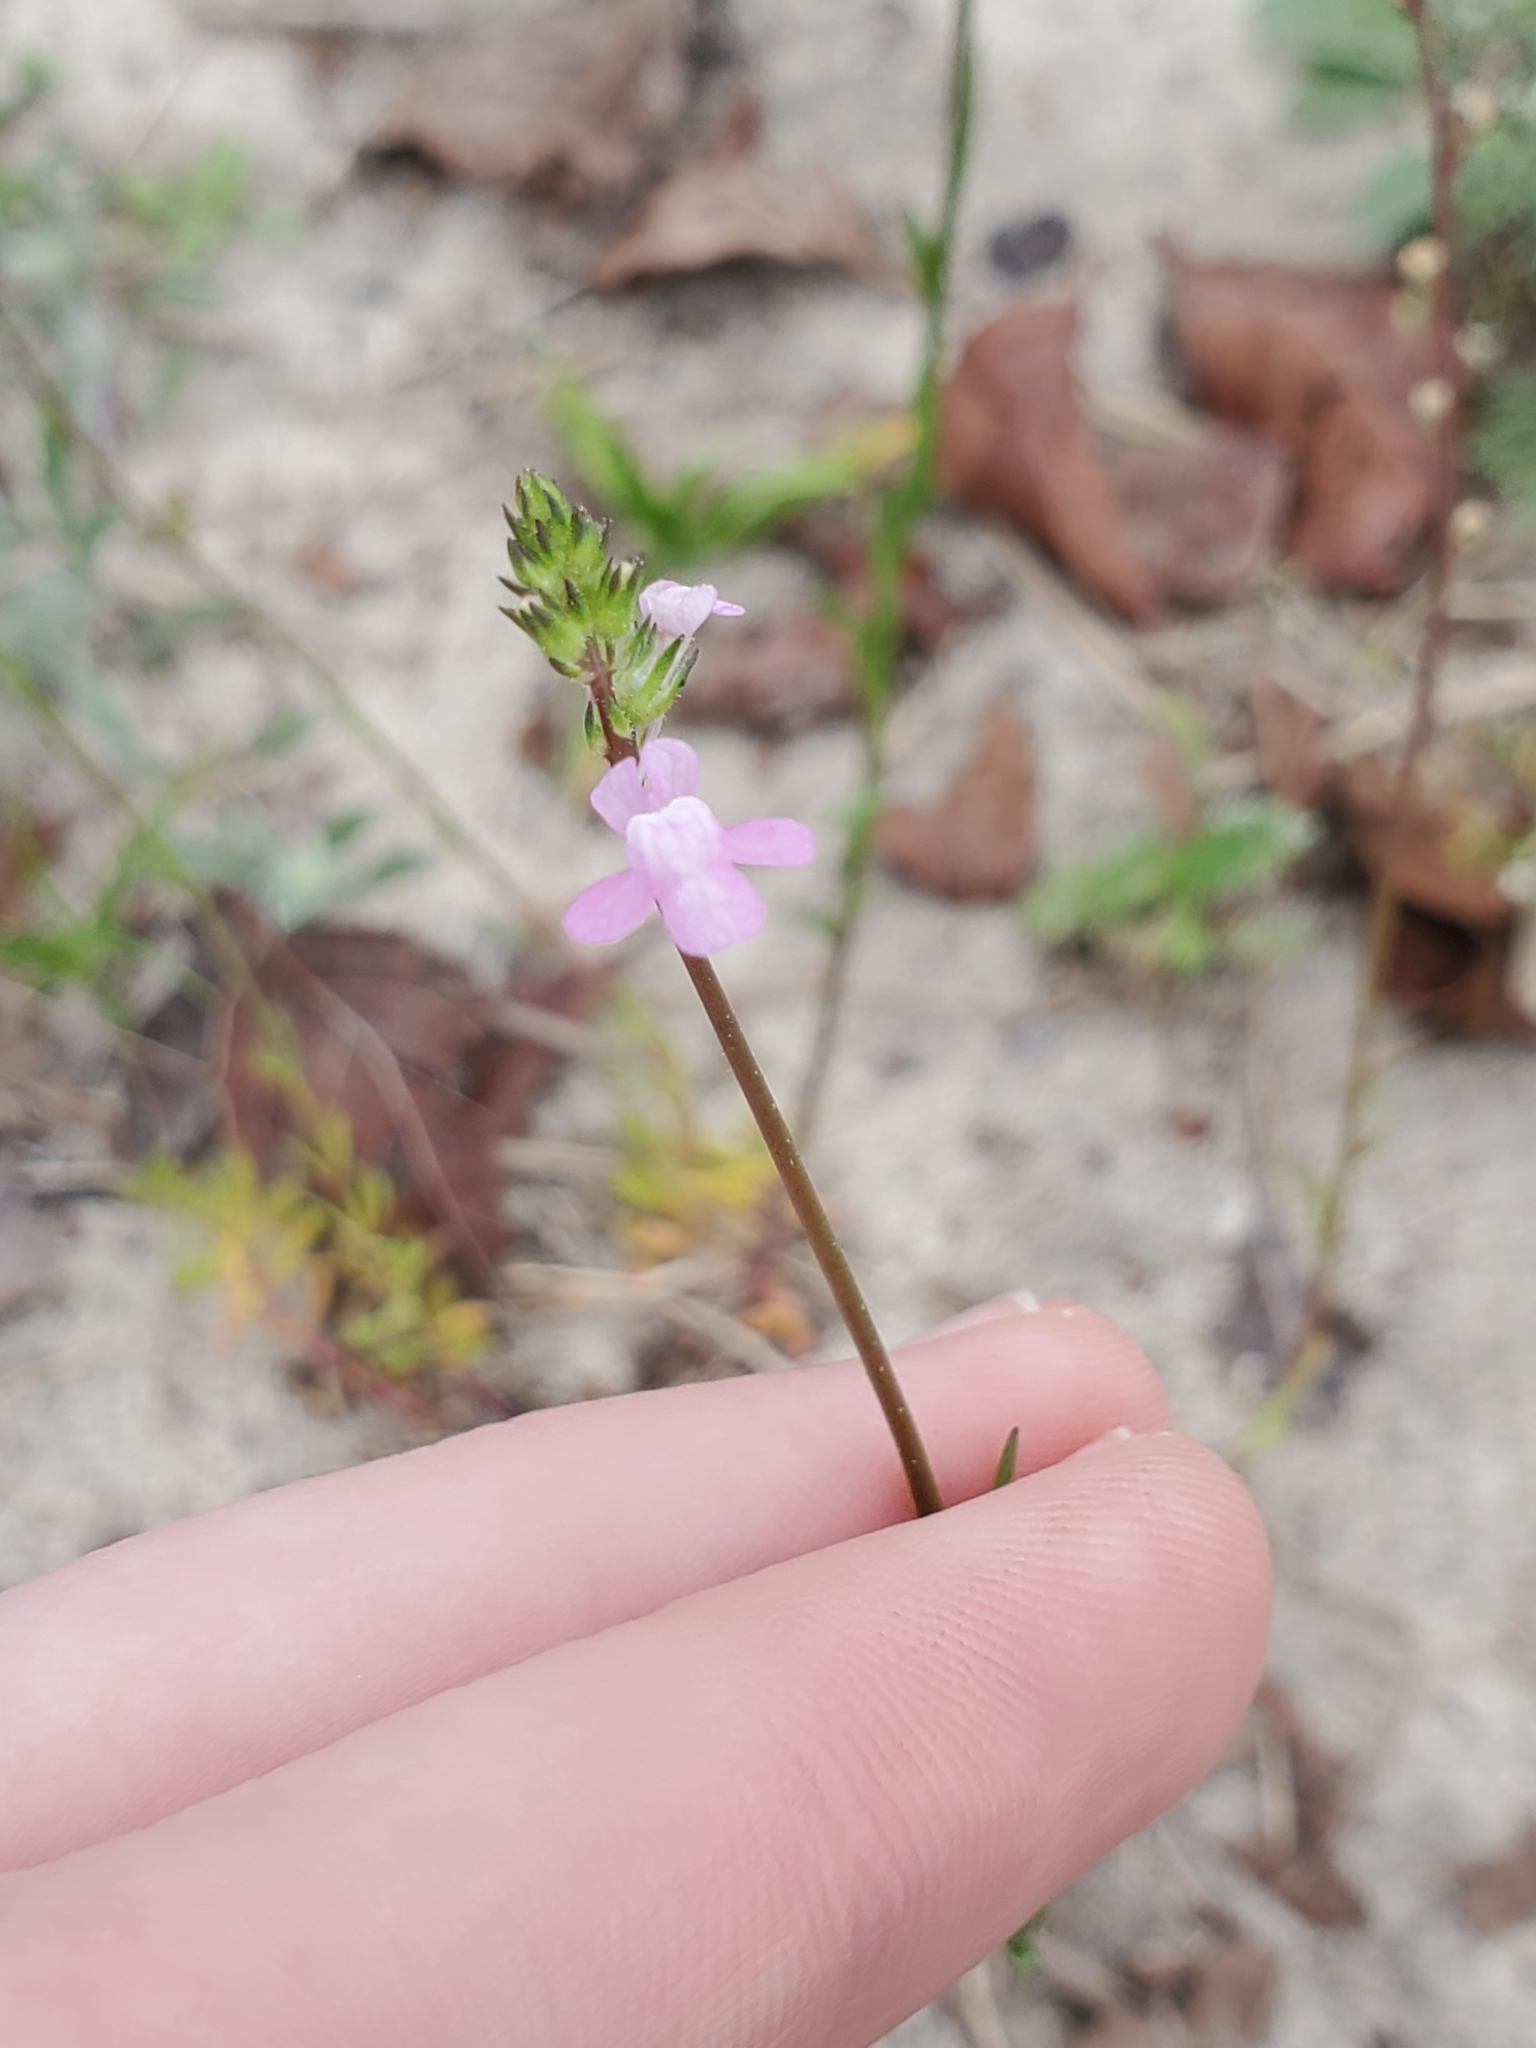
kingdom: Plantae
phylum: Tracheophyta
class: Magnoliopsida
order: Lamiales
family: Plantaginaceae
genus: Nuttallanthus
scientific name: Nuttallanthus canadensis
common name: Blue toadflax
